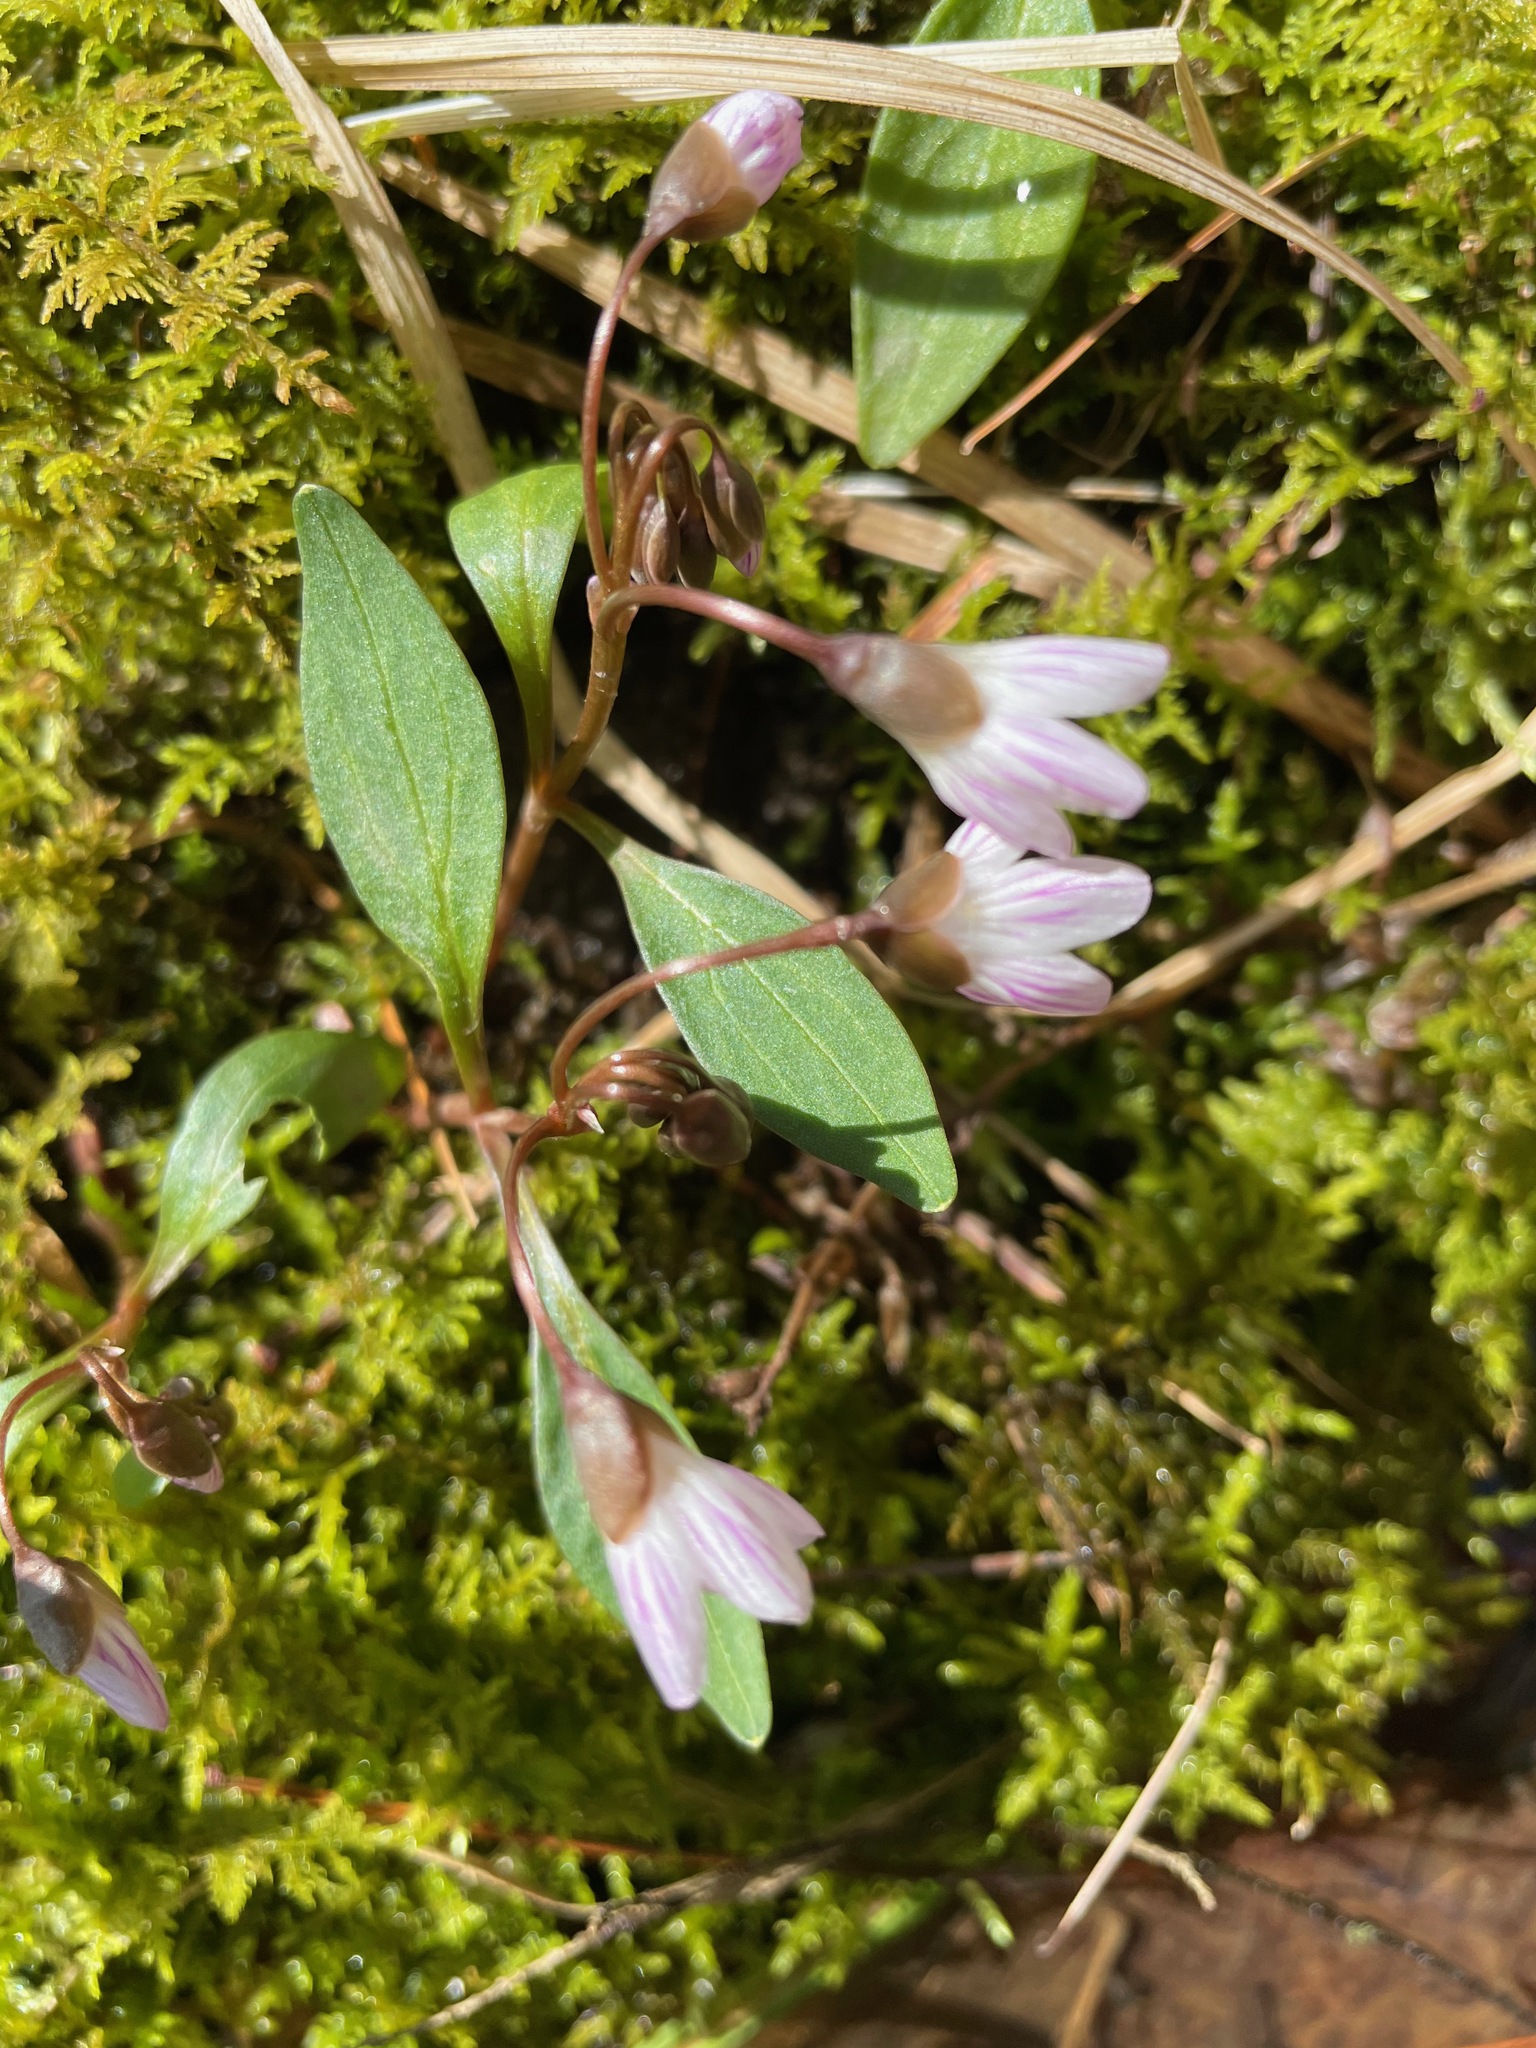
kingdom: Plantae
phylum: Tracheophyta
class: Magnoliopsida
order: Caryophyllales
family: Montiaceae
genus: Claytonia
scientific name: Claytonia caroliniana
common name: Carolina spring beauty
